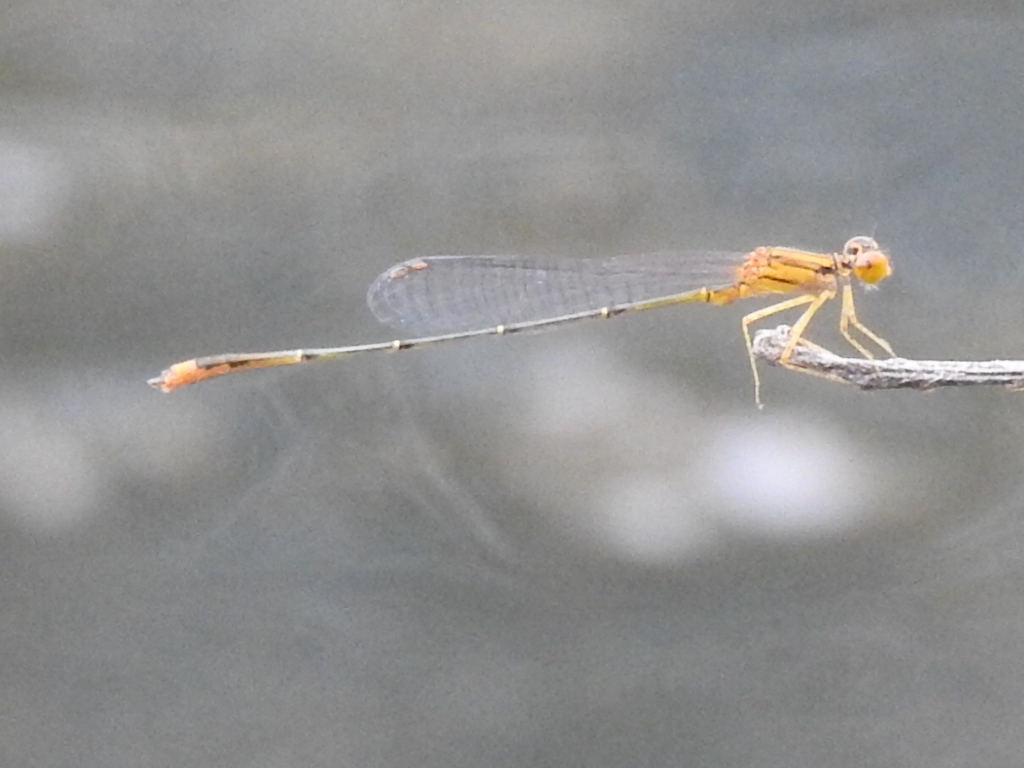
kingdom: Animalia
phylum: Arthropoda
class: Insecta
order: Odonata
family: Coenagrionidae
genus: Enallagma
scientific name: Enallagma signatum
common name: Orange bluet
